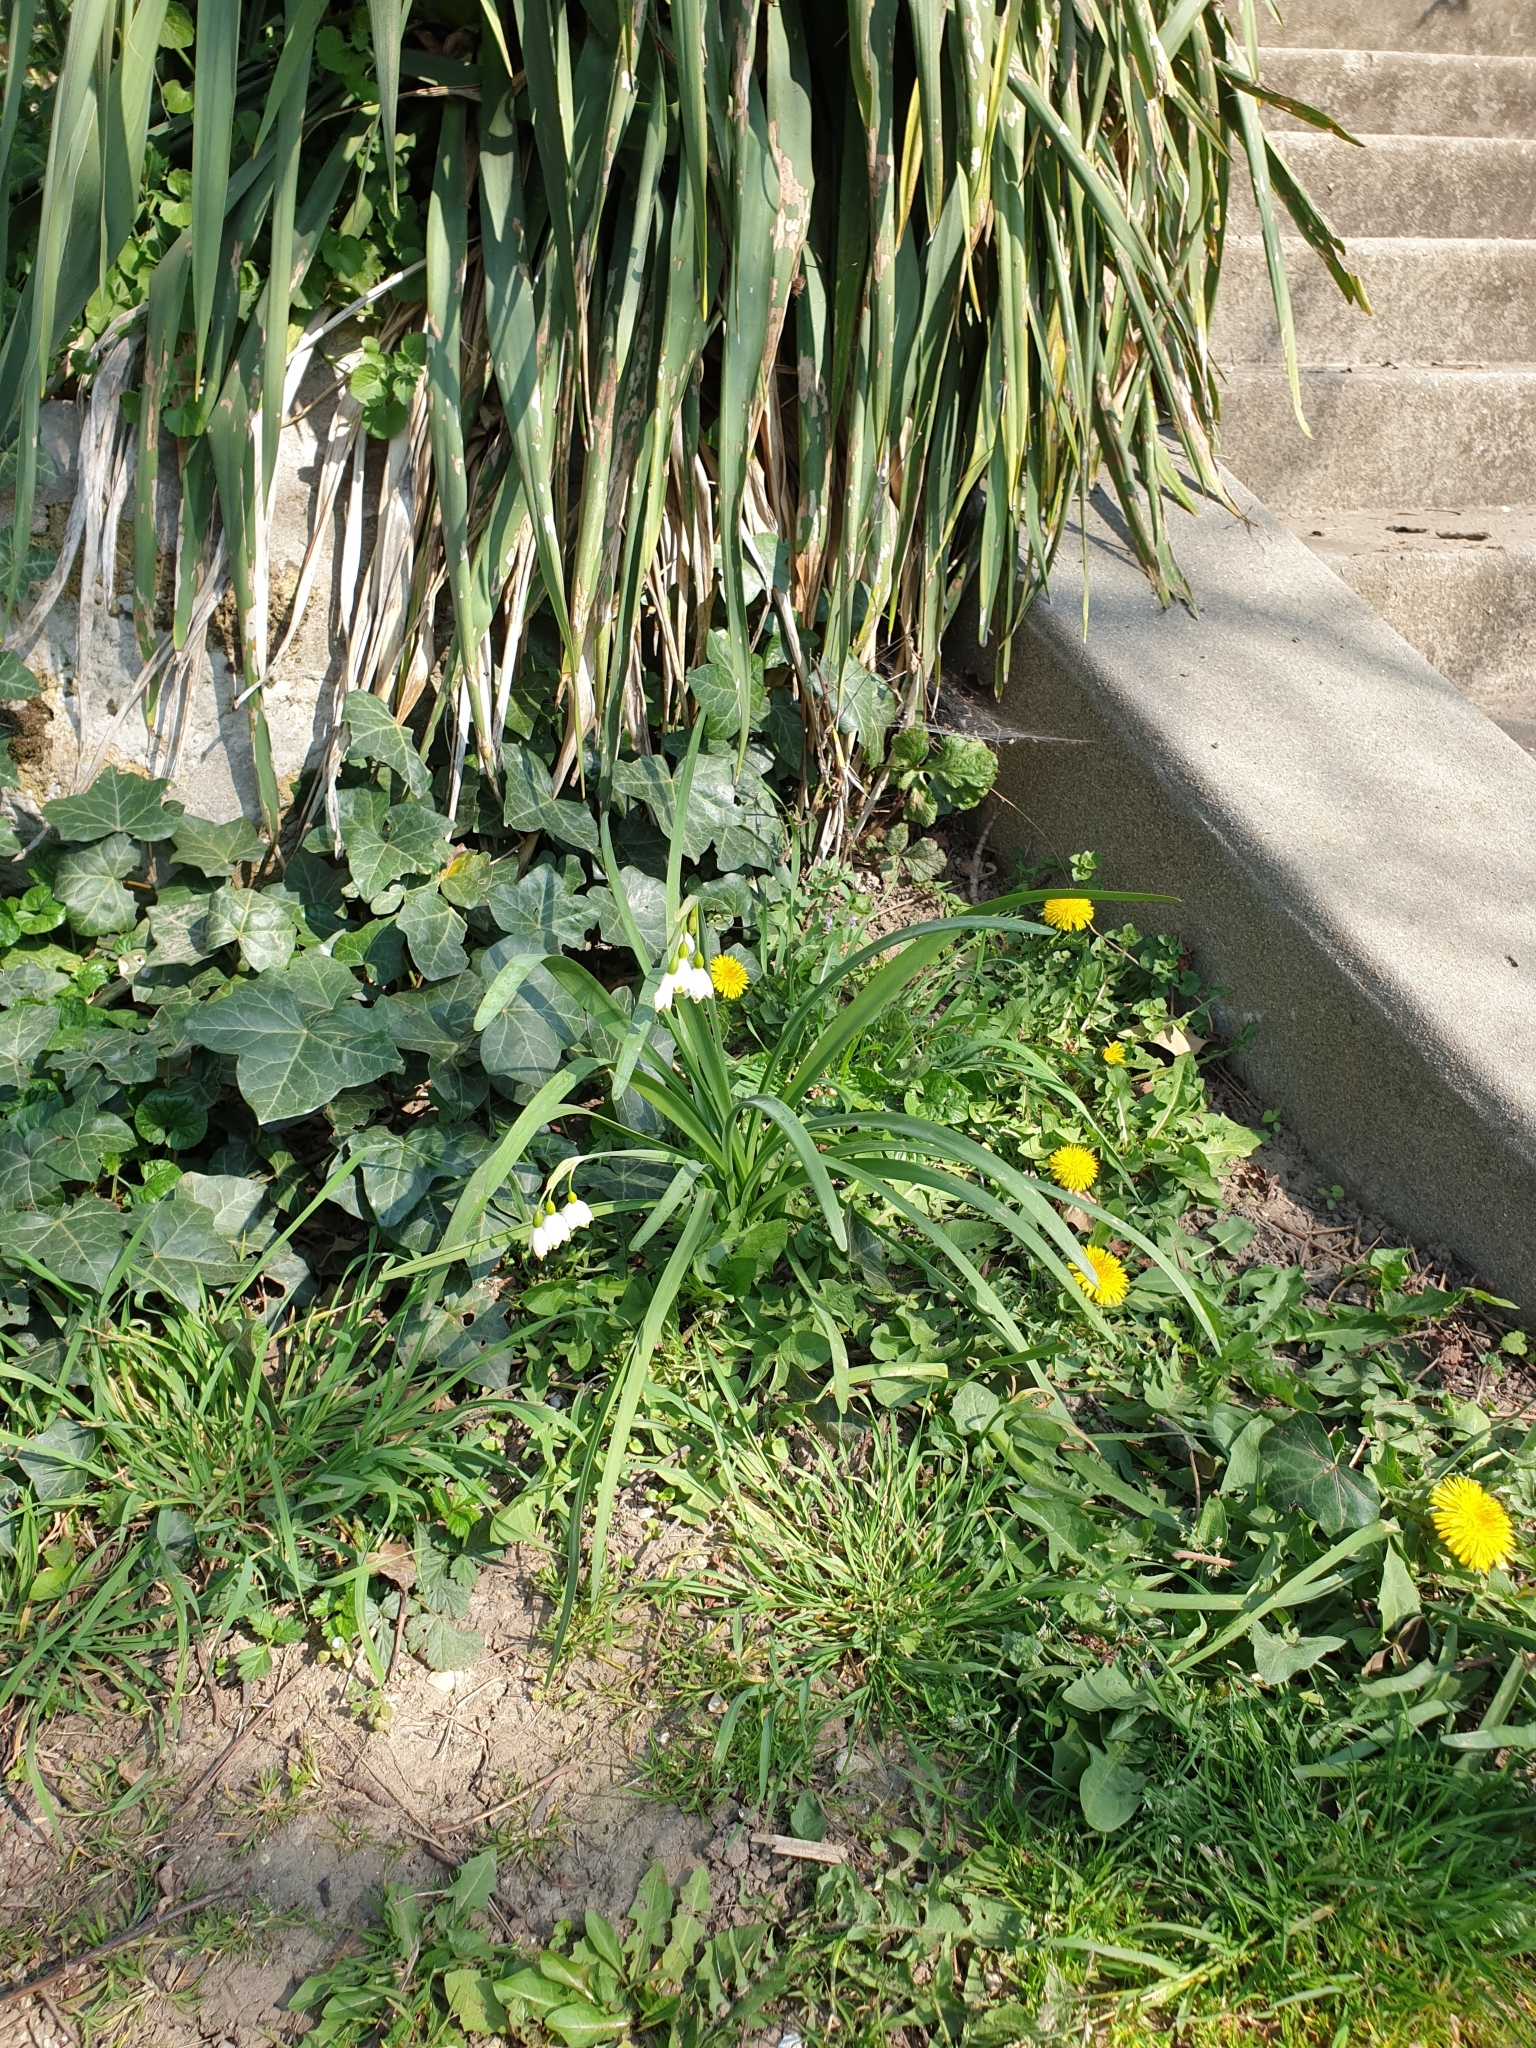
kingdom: Plantae
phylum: Tracheophyta
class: Liliopsida
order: Asparagales
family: Amaryllidaceae
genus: Leucojum
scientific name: Leucojum aestivum
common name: Summer snowflake
